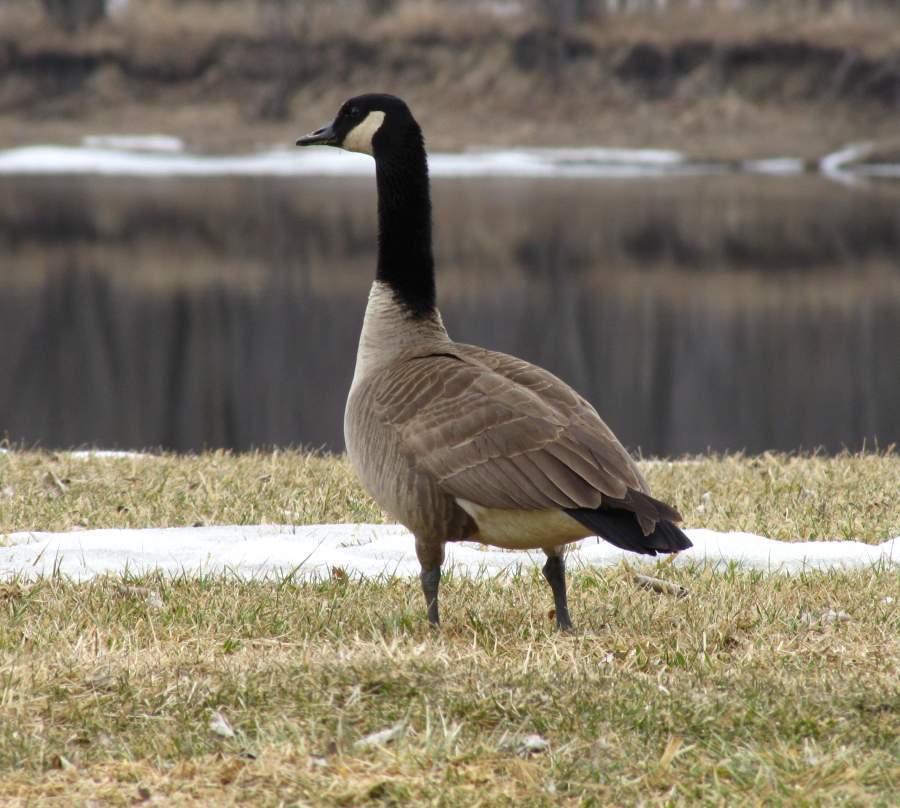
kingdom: Animalia
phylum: Chordata
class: Aves
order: Anseriformes
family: Anatidae
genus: Branta
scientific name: Branta canadensis
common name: Canada goose
